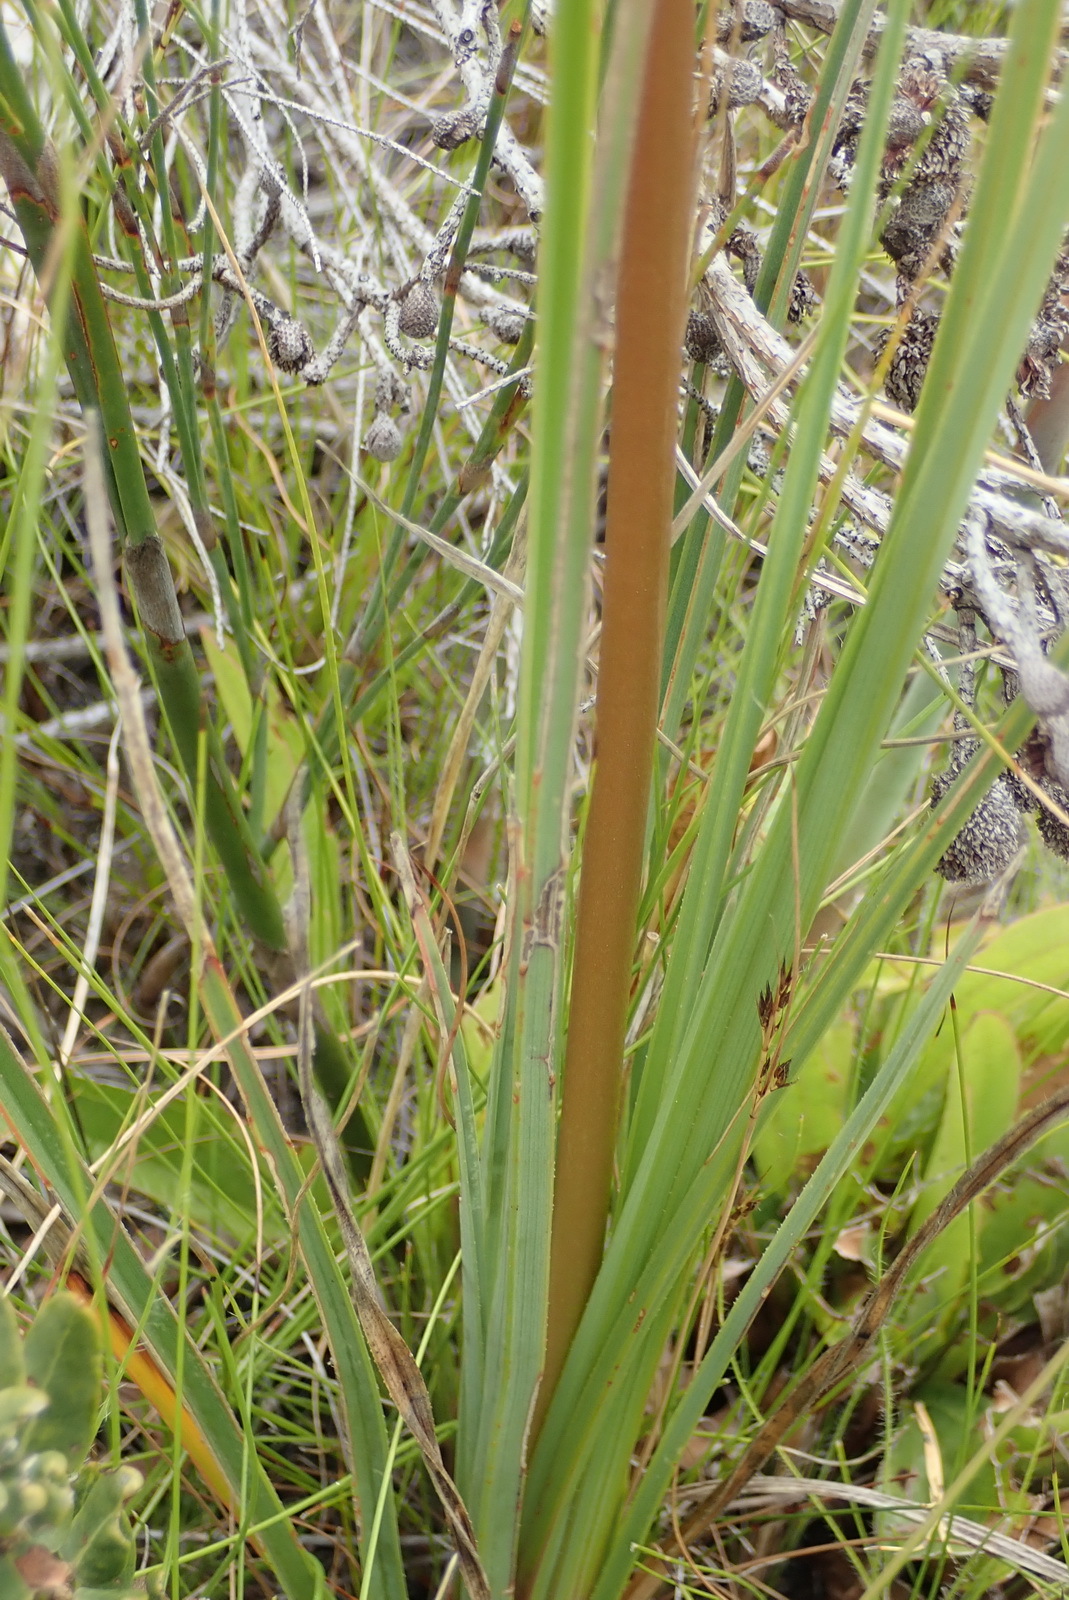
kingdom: Plantae
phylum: Tracheophyta
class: Liliopsida
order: Asparagales
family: Asphodelaceae
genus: Kniphofia
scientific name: Kniphofia uvaria
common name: Red-hot-poker
